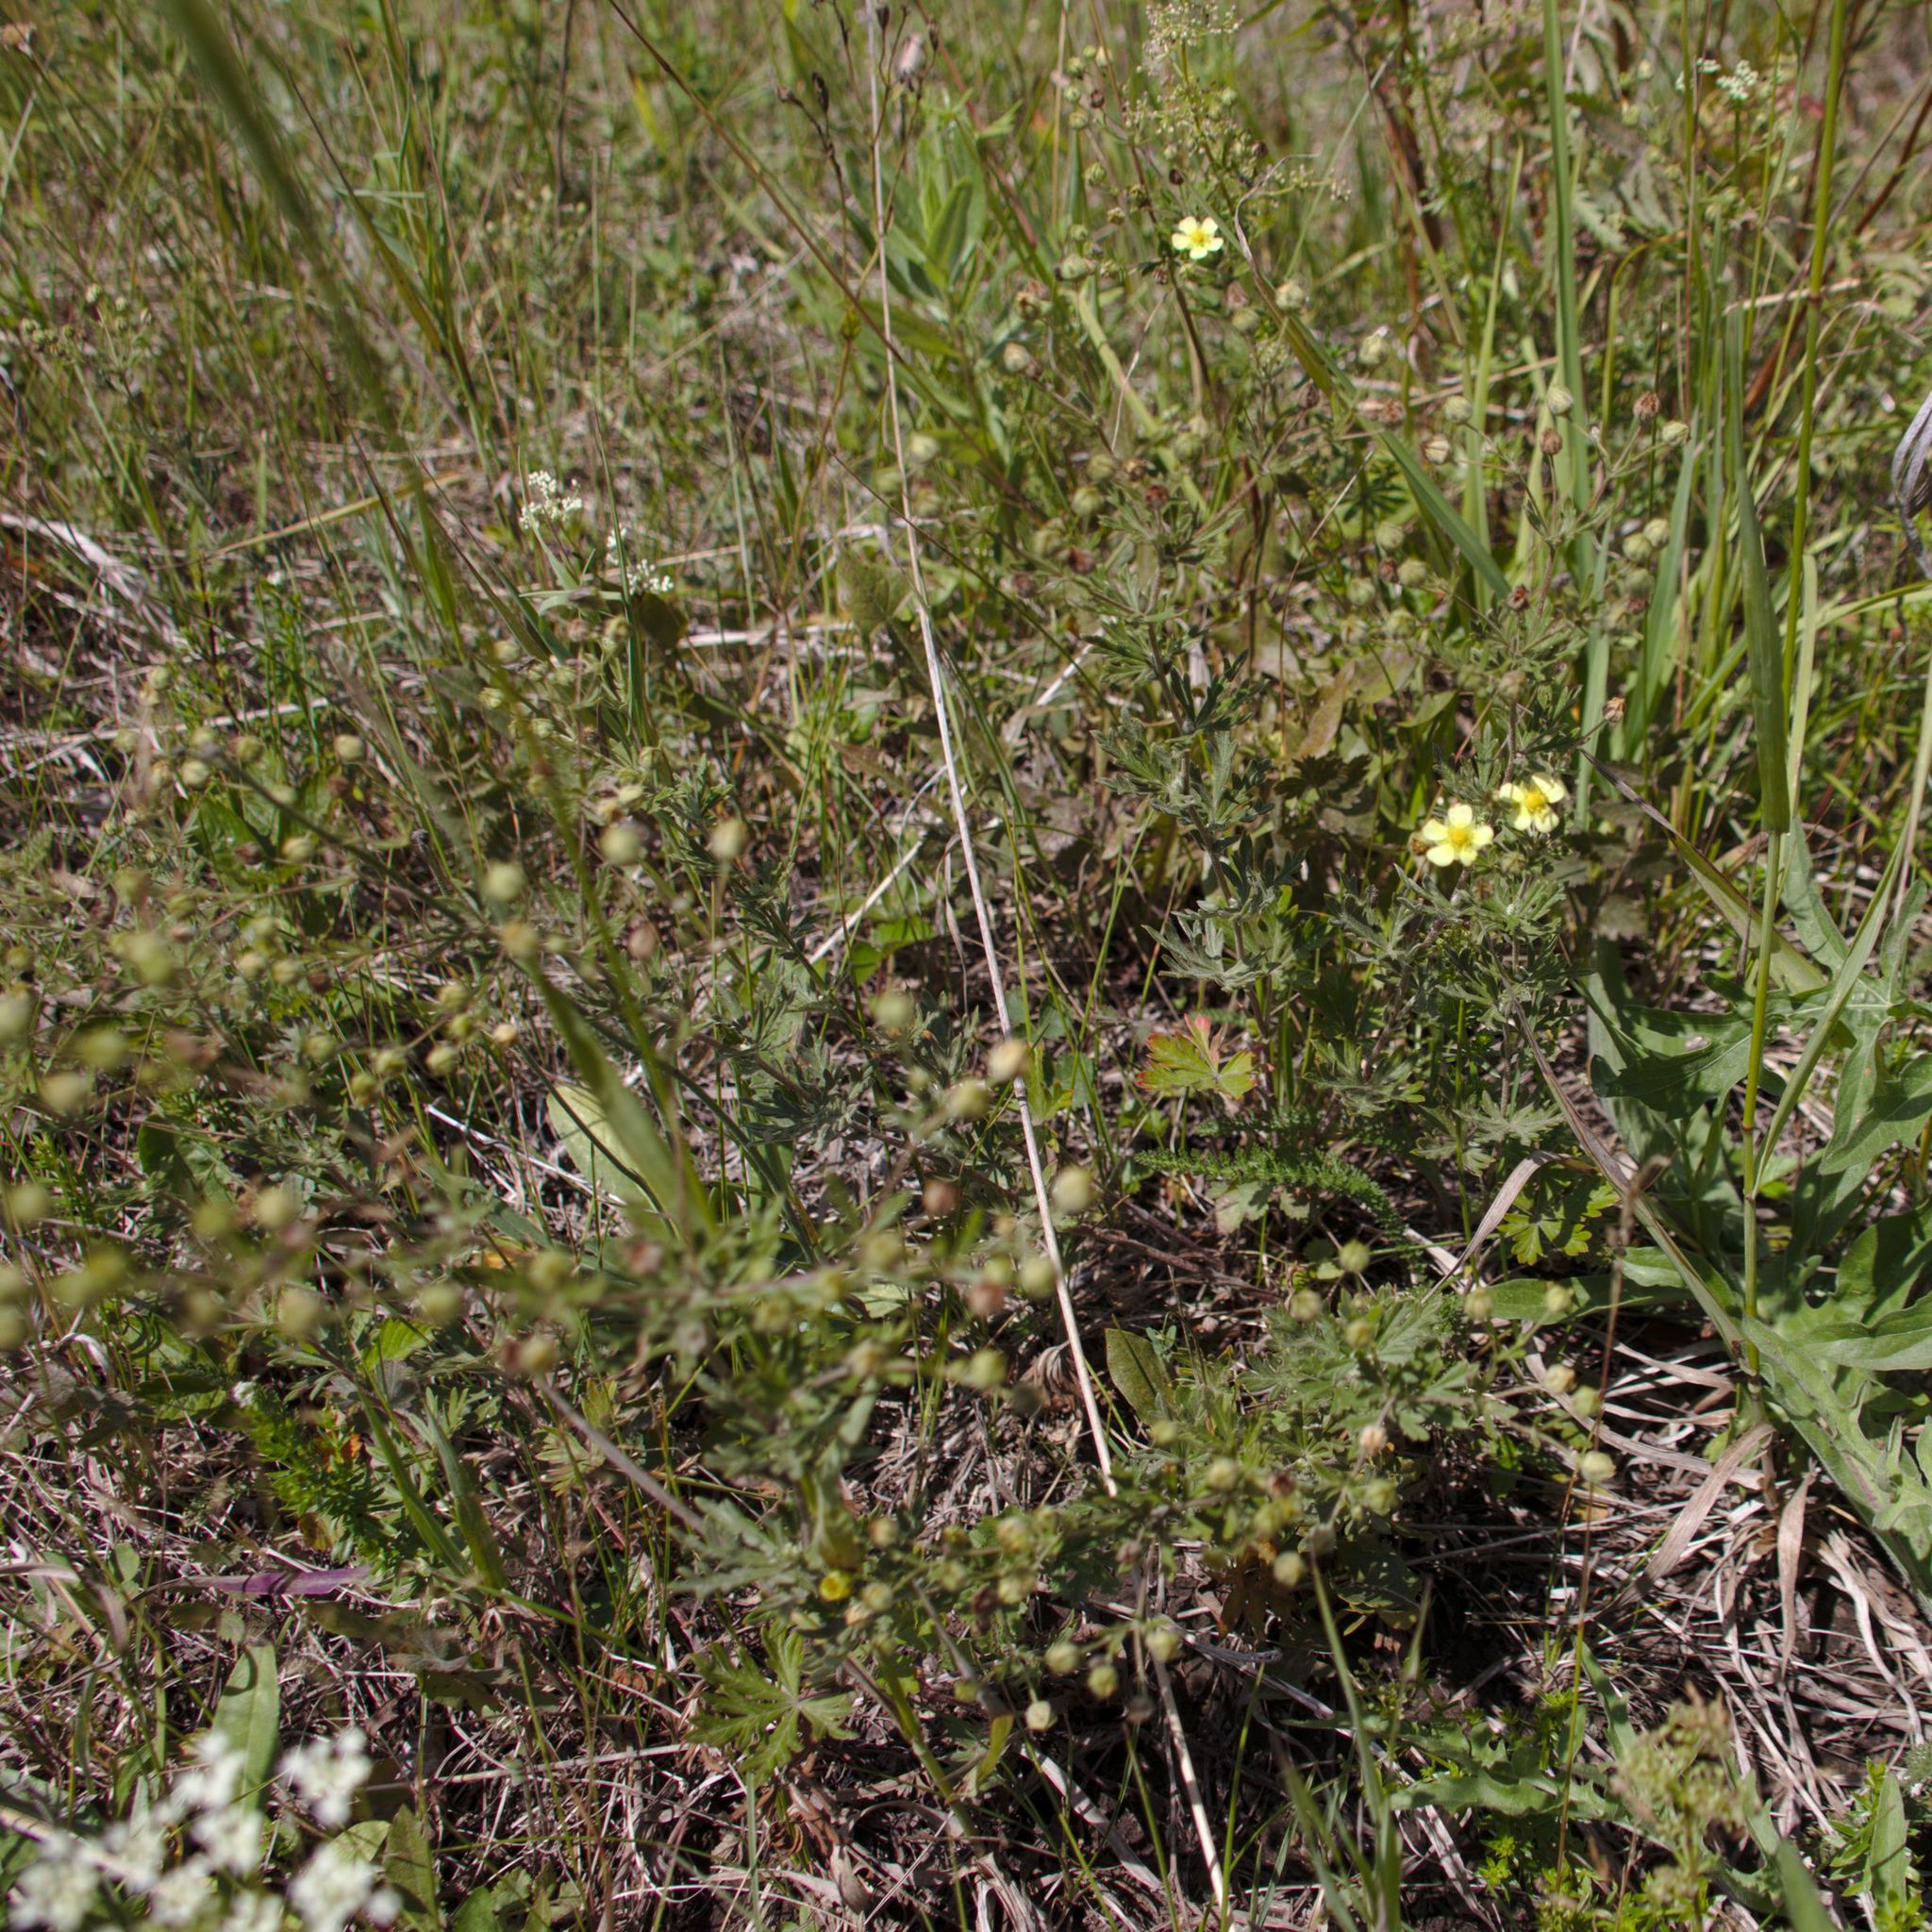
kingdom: Plantae
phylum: Tracheophyta
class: Magnoliopsida
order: Rosales
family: Rosaceae
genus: Potentilla
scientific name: Potentilla argentea
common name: Hoary cinquefoil
